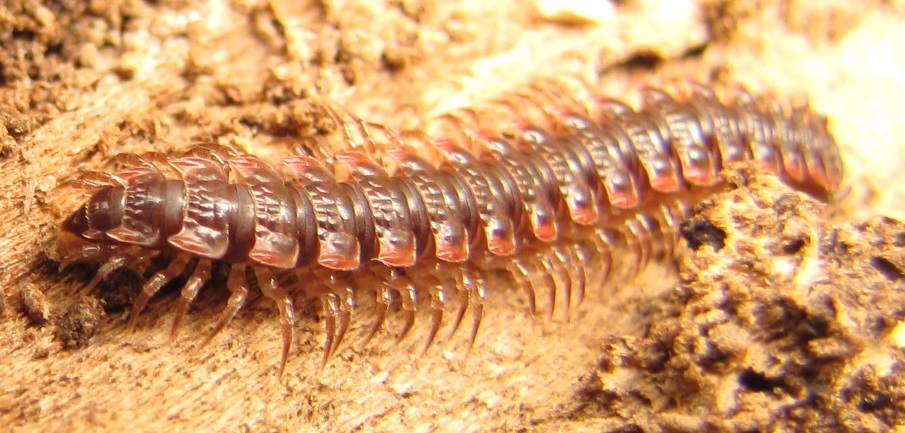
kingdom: Animalia
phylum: Arthropoda
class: Diplopoda
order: Polydesmida
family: Polydesmidae
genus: Pseudopolydesmus
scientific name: Pseudopolydesmus serratus
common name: Common pink flat-back millipede
